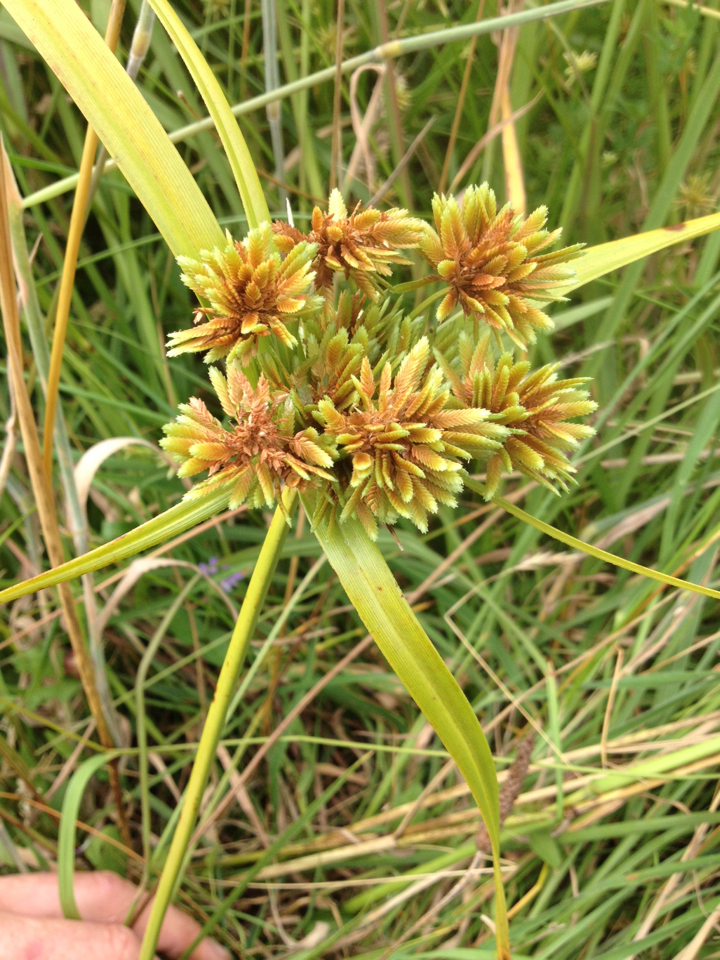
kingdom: Plantae
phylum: Tracheophyta
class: Liliopsida
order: Poales
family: Cyperaceae
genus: Cyperus
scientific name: Cyperus eragrostis
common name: Tall flatsedge
